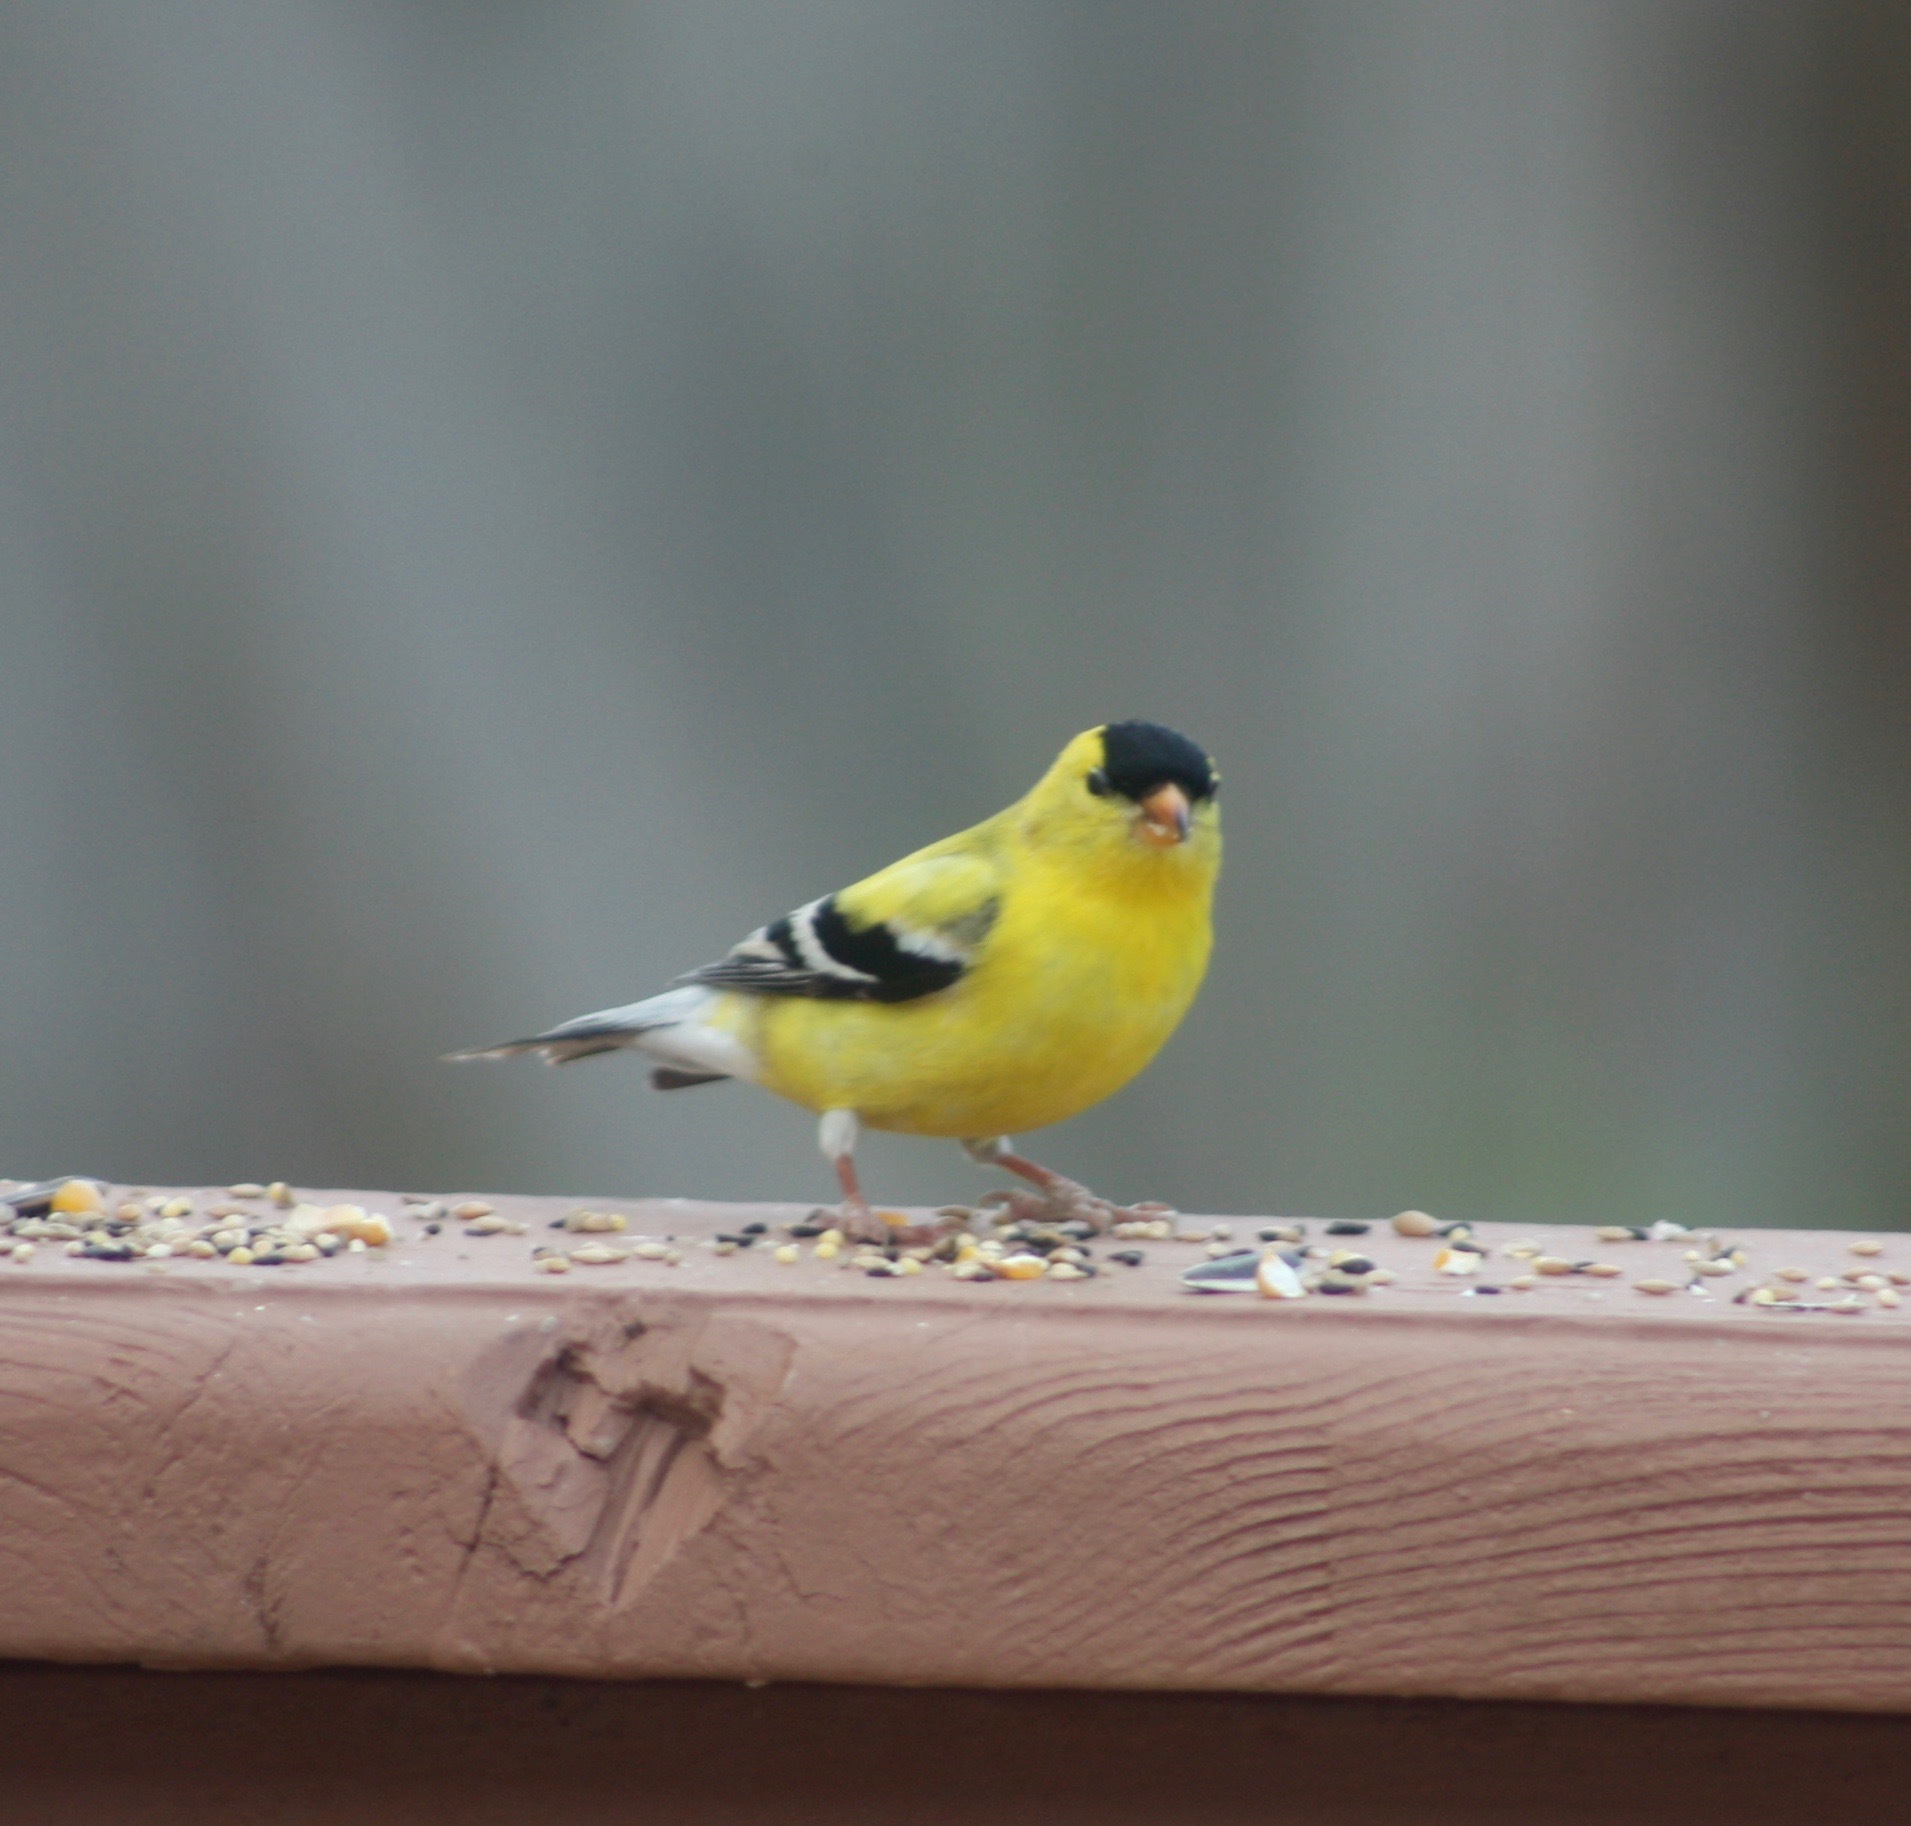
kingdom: Animalia
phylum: Chordata
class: Aves
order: Passeriformes
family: Fringillidae
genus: Spinus
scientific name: Spinus tristis
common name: American goldfinch
